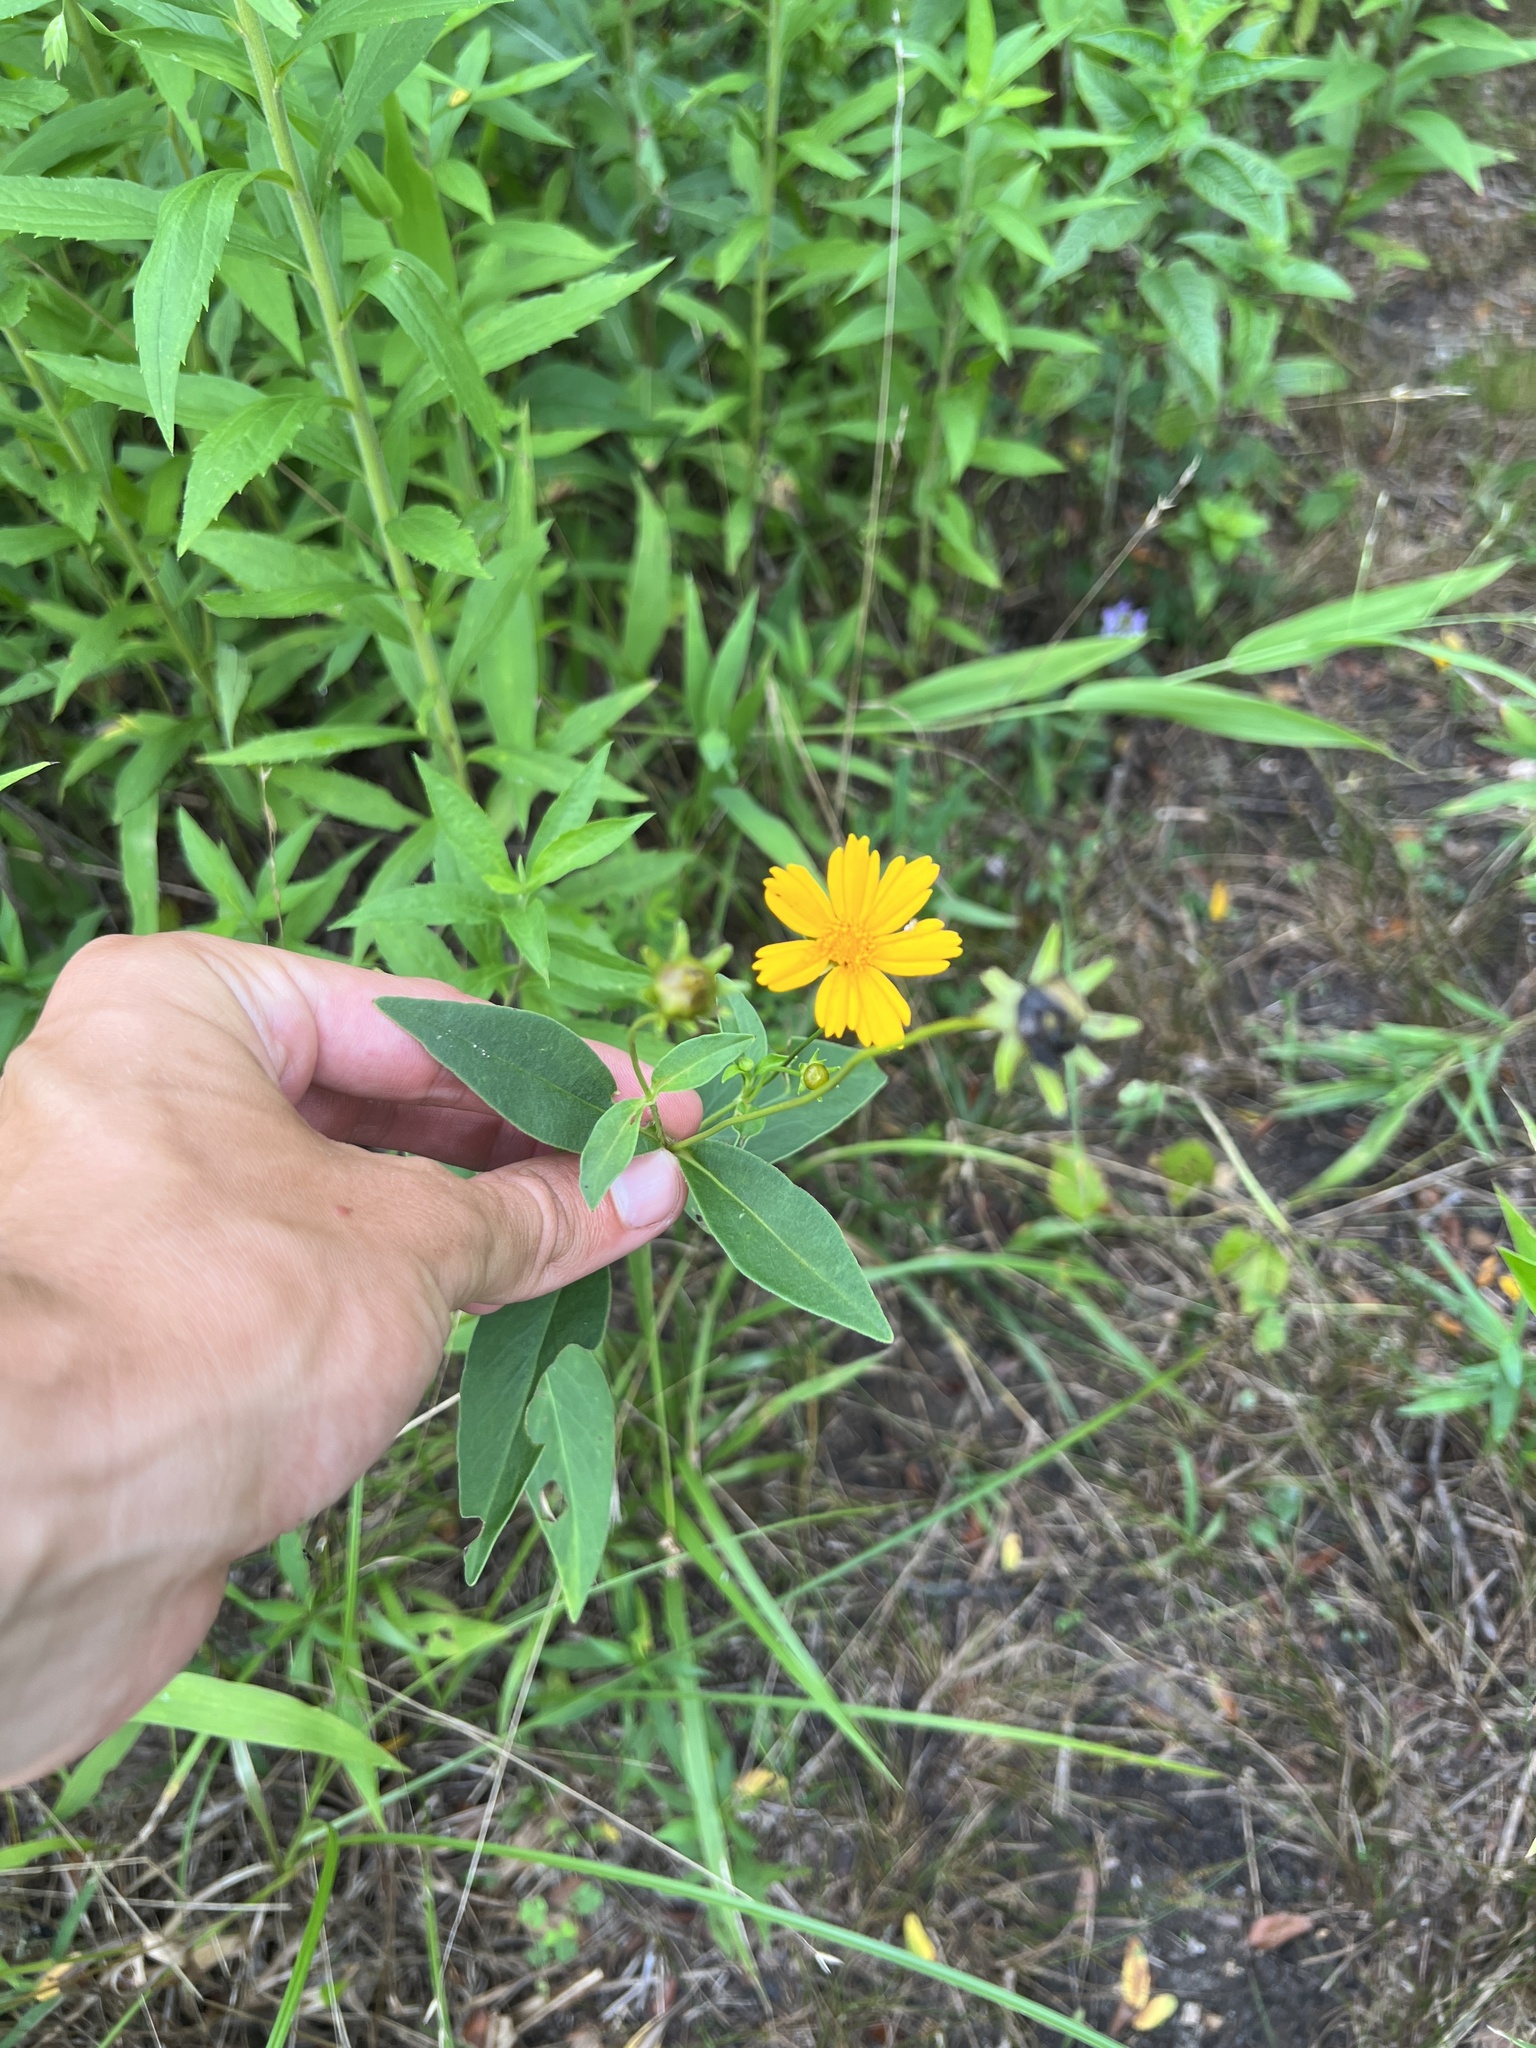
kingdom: Plantae
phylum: Tracheophyta
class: Magnoliopsida
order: Asterales
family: Asteraceae
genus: Coreopsis
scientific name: Coreopsis pubescens
